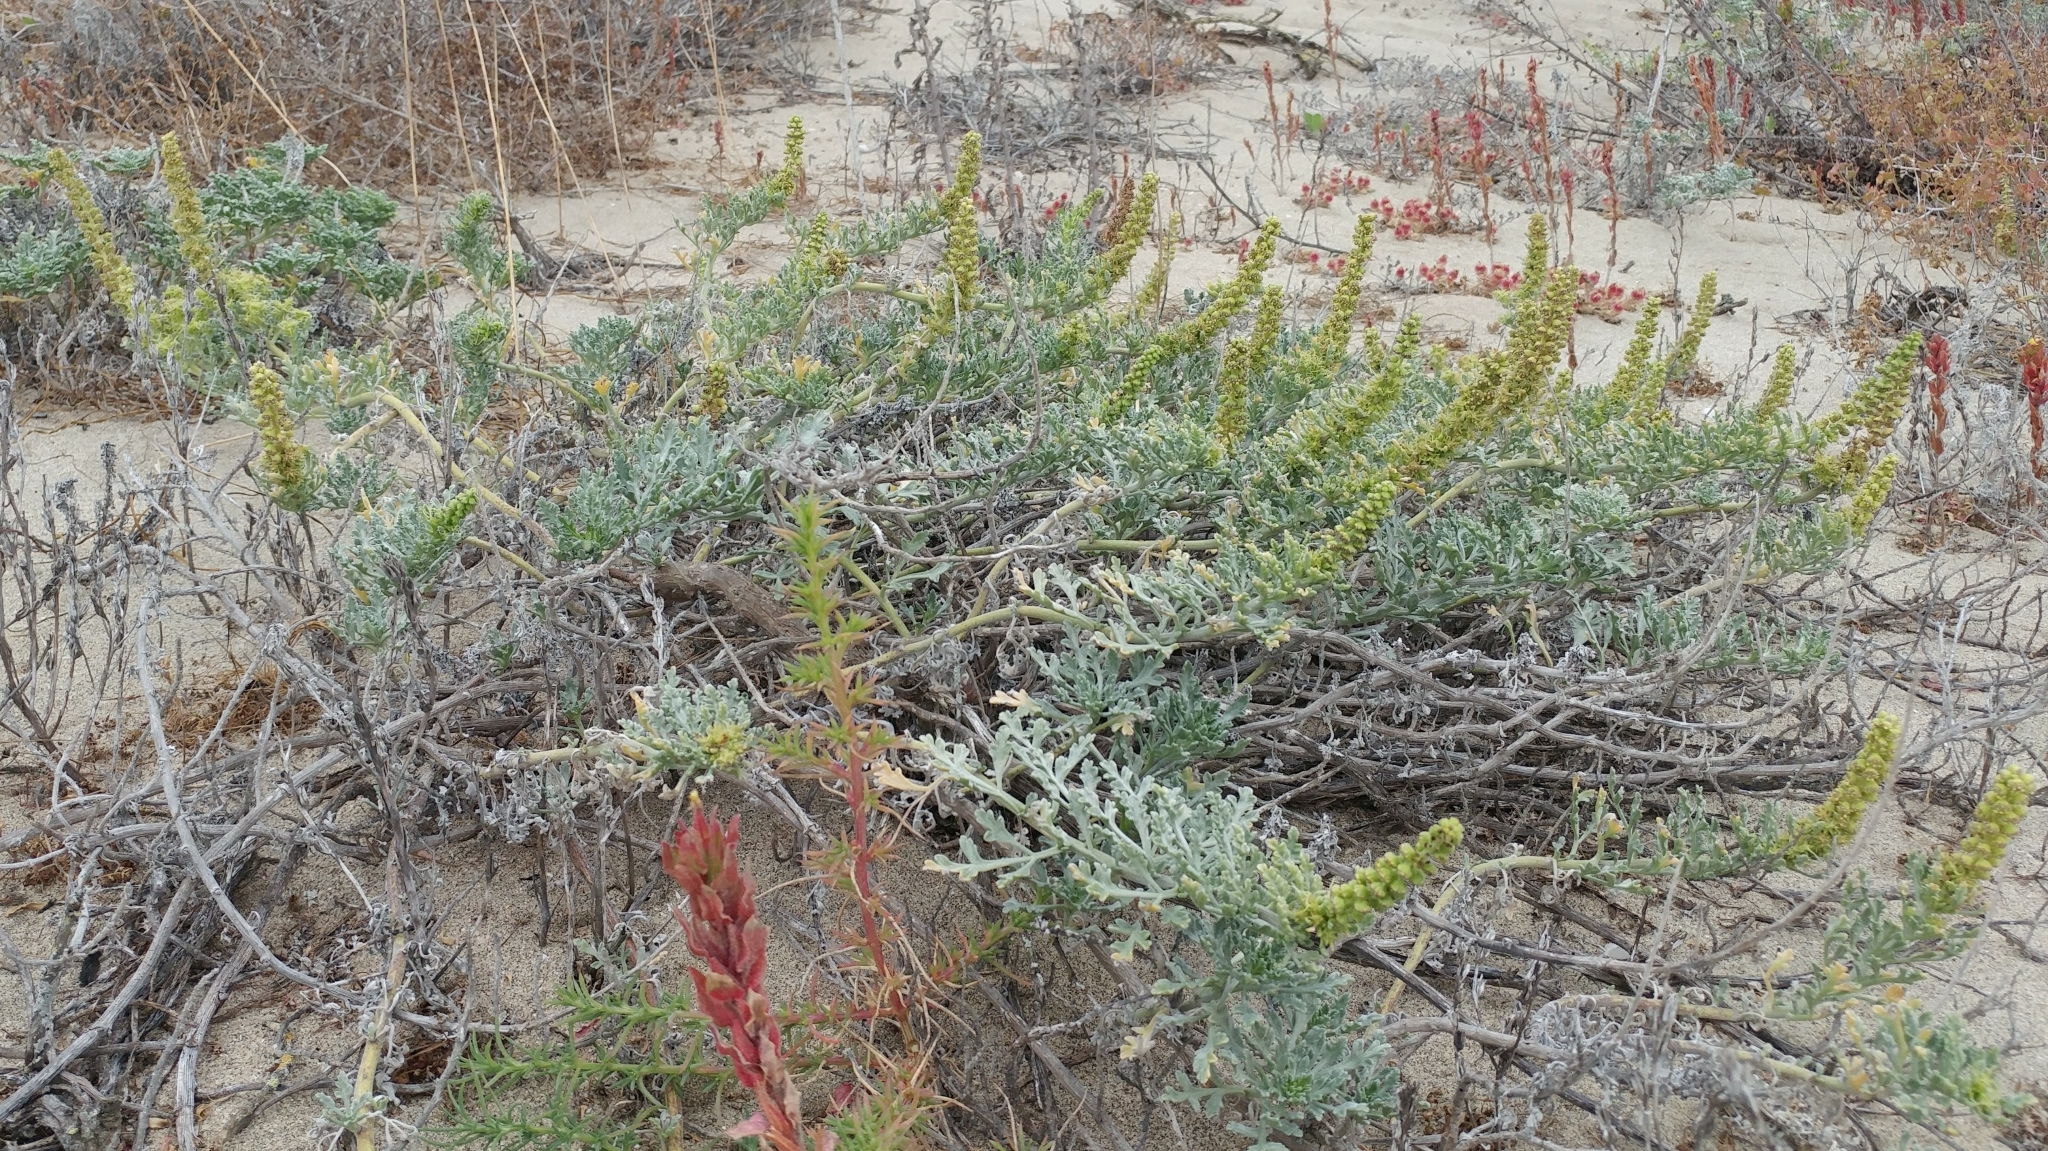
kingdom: Plantae
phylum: Tracheophyta
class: Magnoliopsida
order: Asterales
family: Asteraceae
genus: Ambrosia
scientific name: Ambrosia chamissonis
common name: Beachbur
